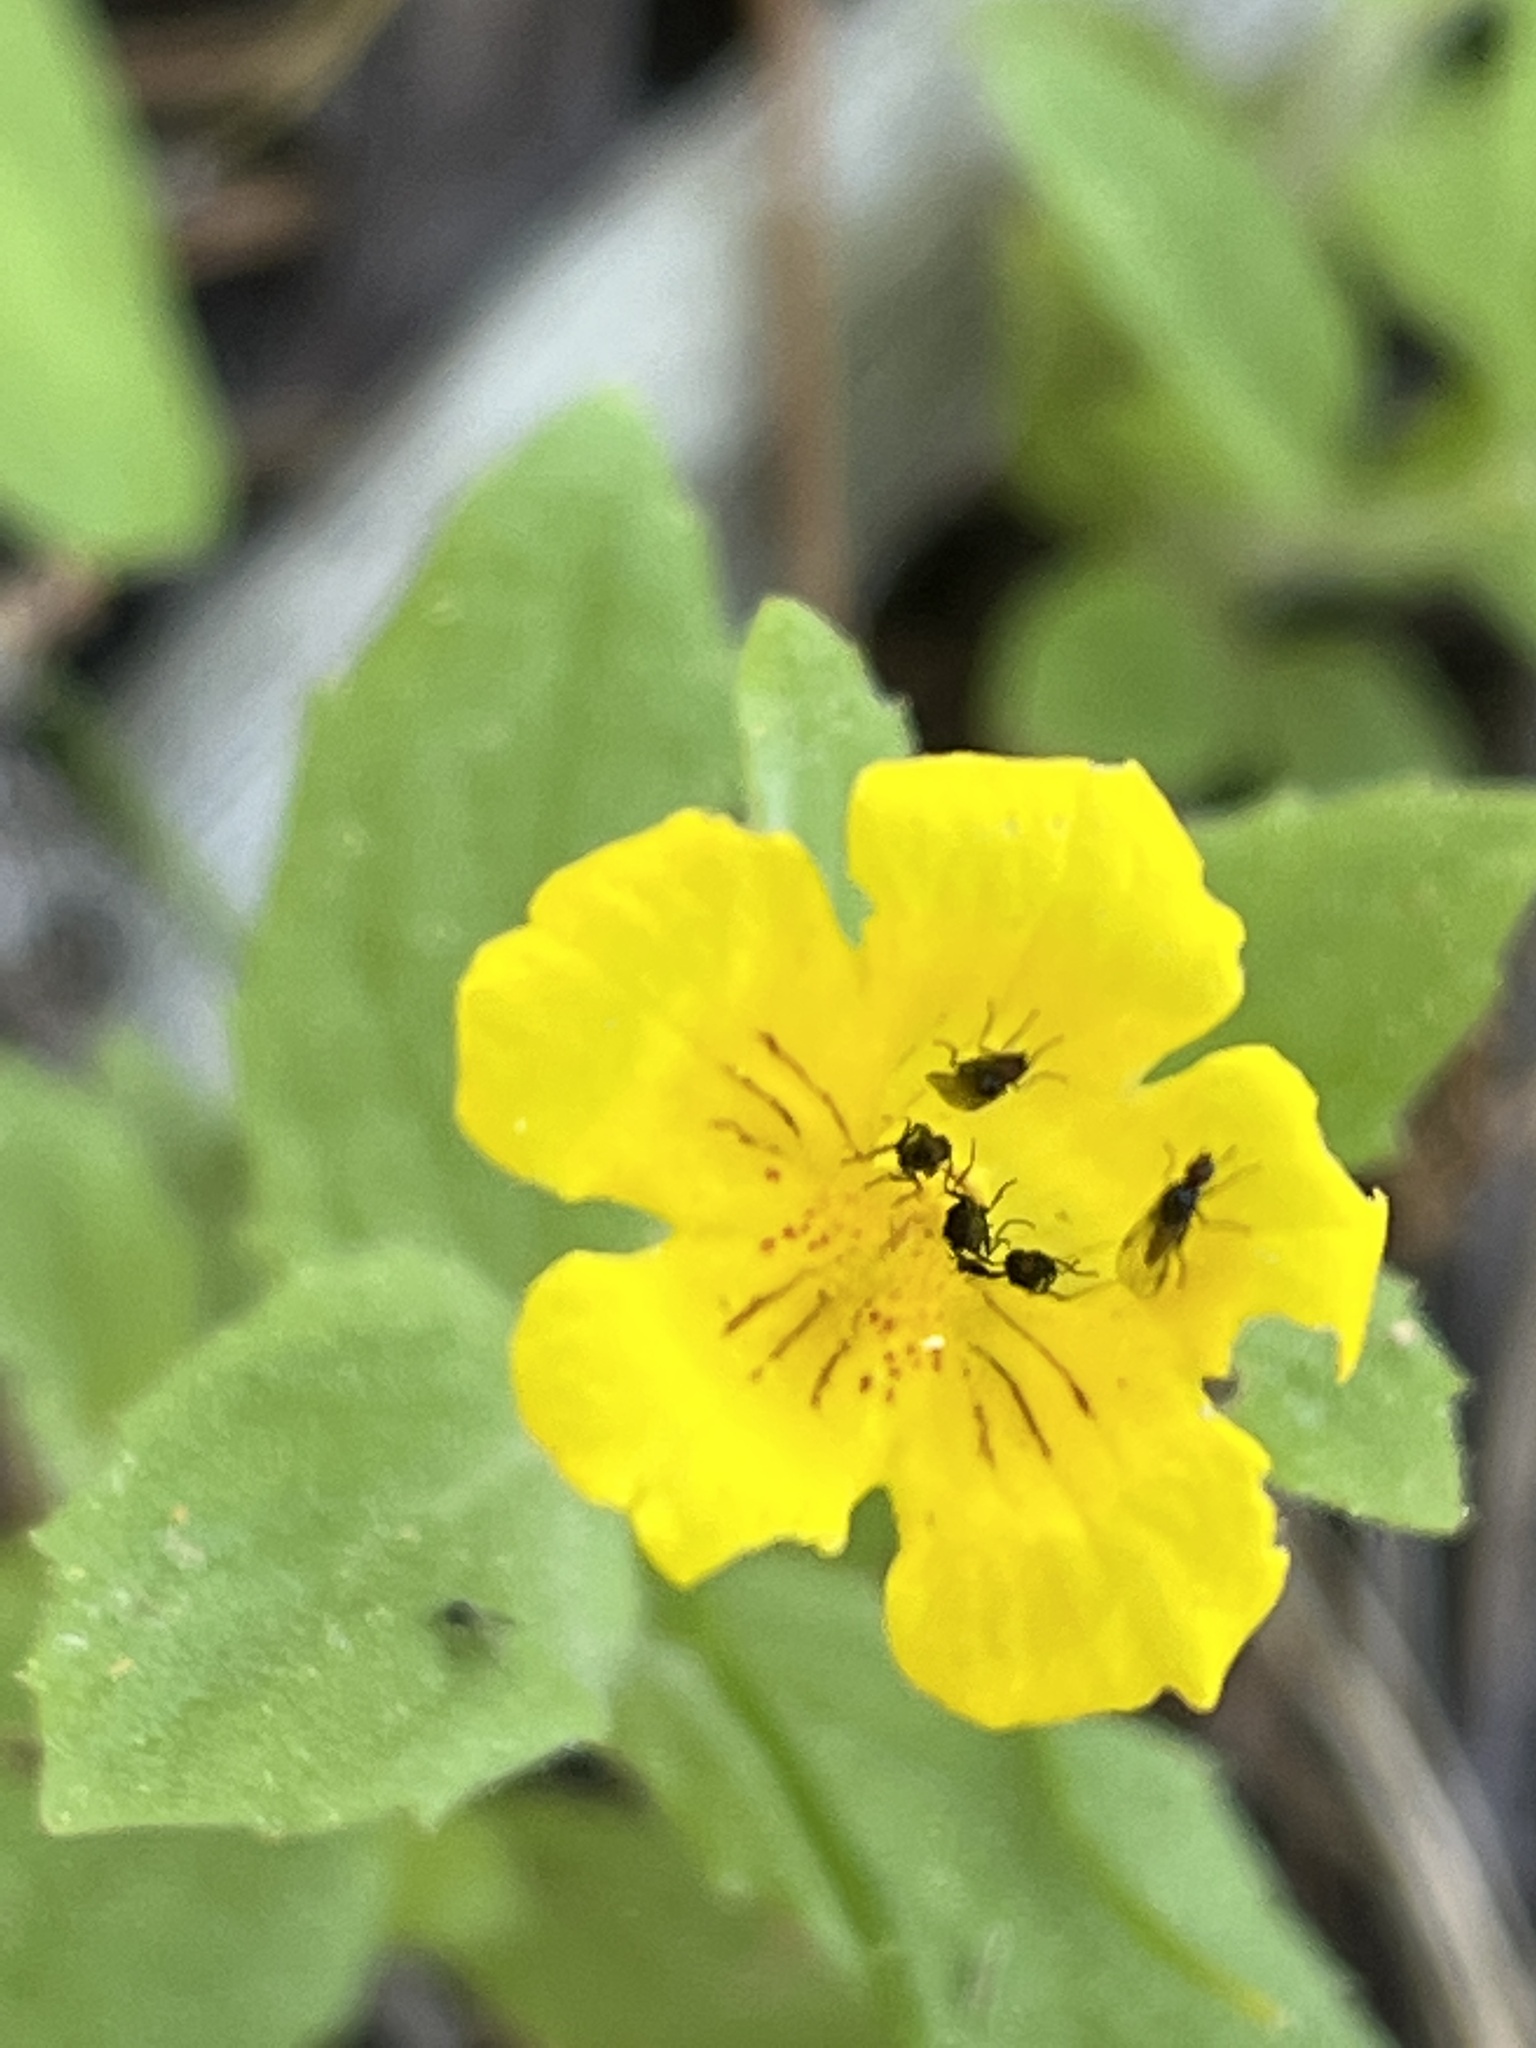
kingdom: Plantae
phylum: Tracheophyta
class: Magnoliopsida
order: Lamiales
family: Phrymaceae
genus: Erythranthe
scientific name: Erythranthe moschata
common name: Muskflower
